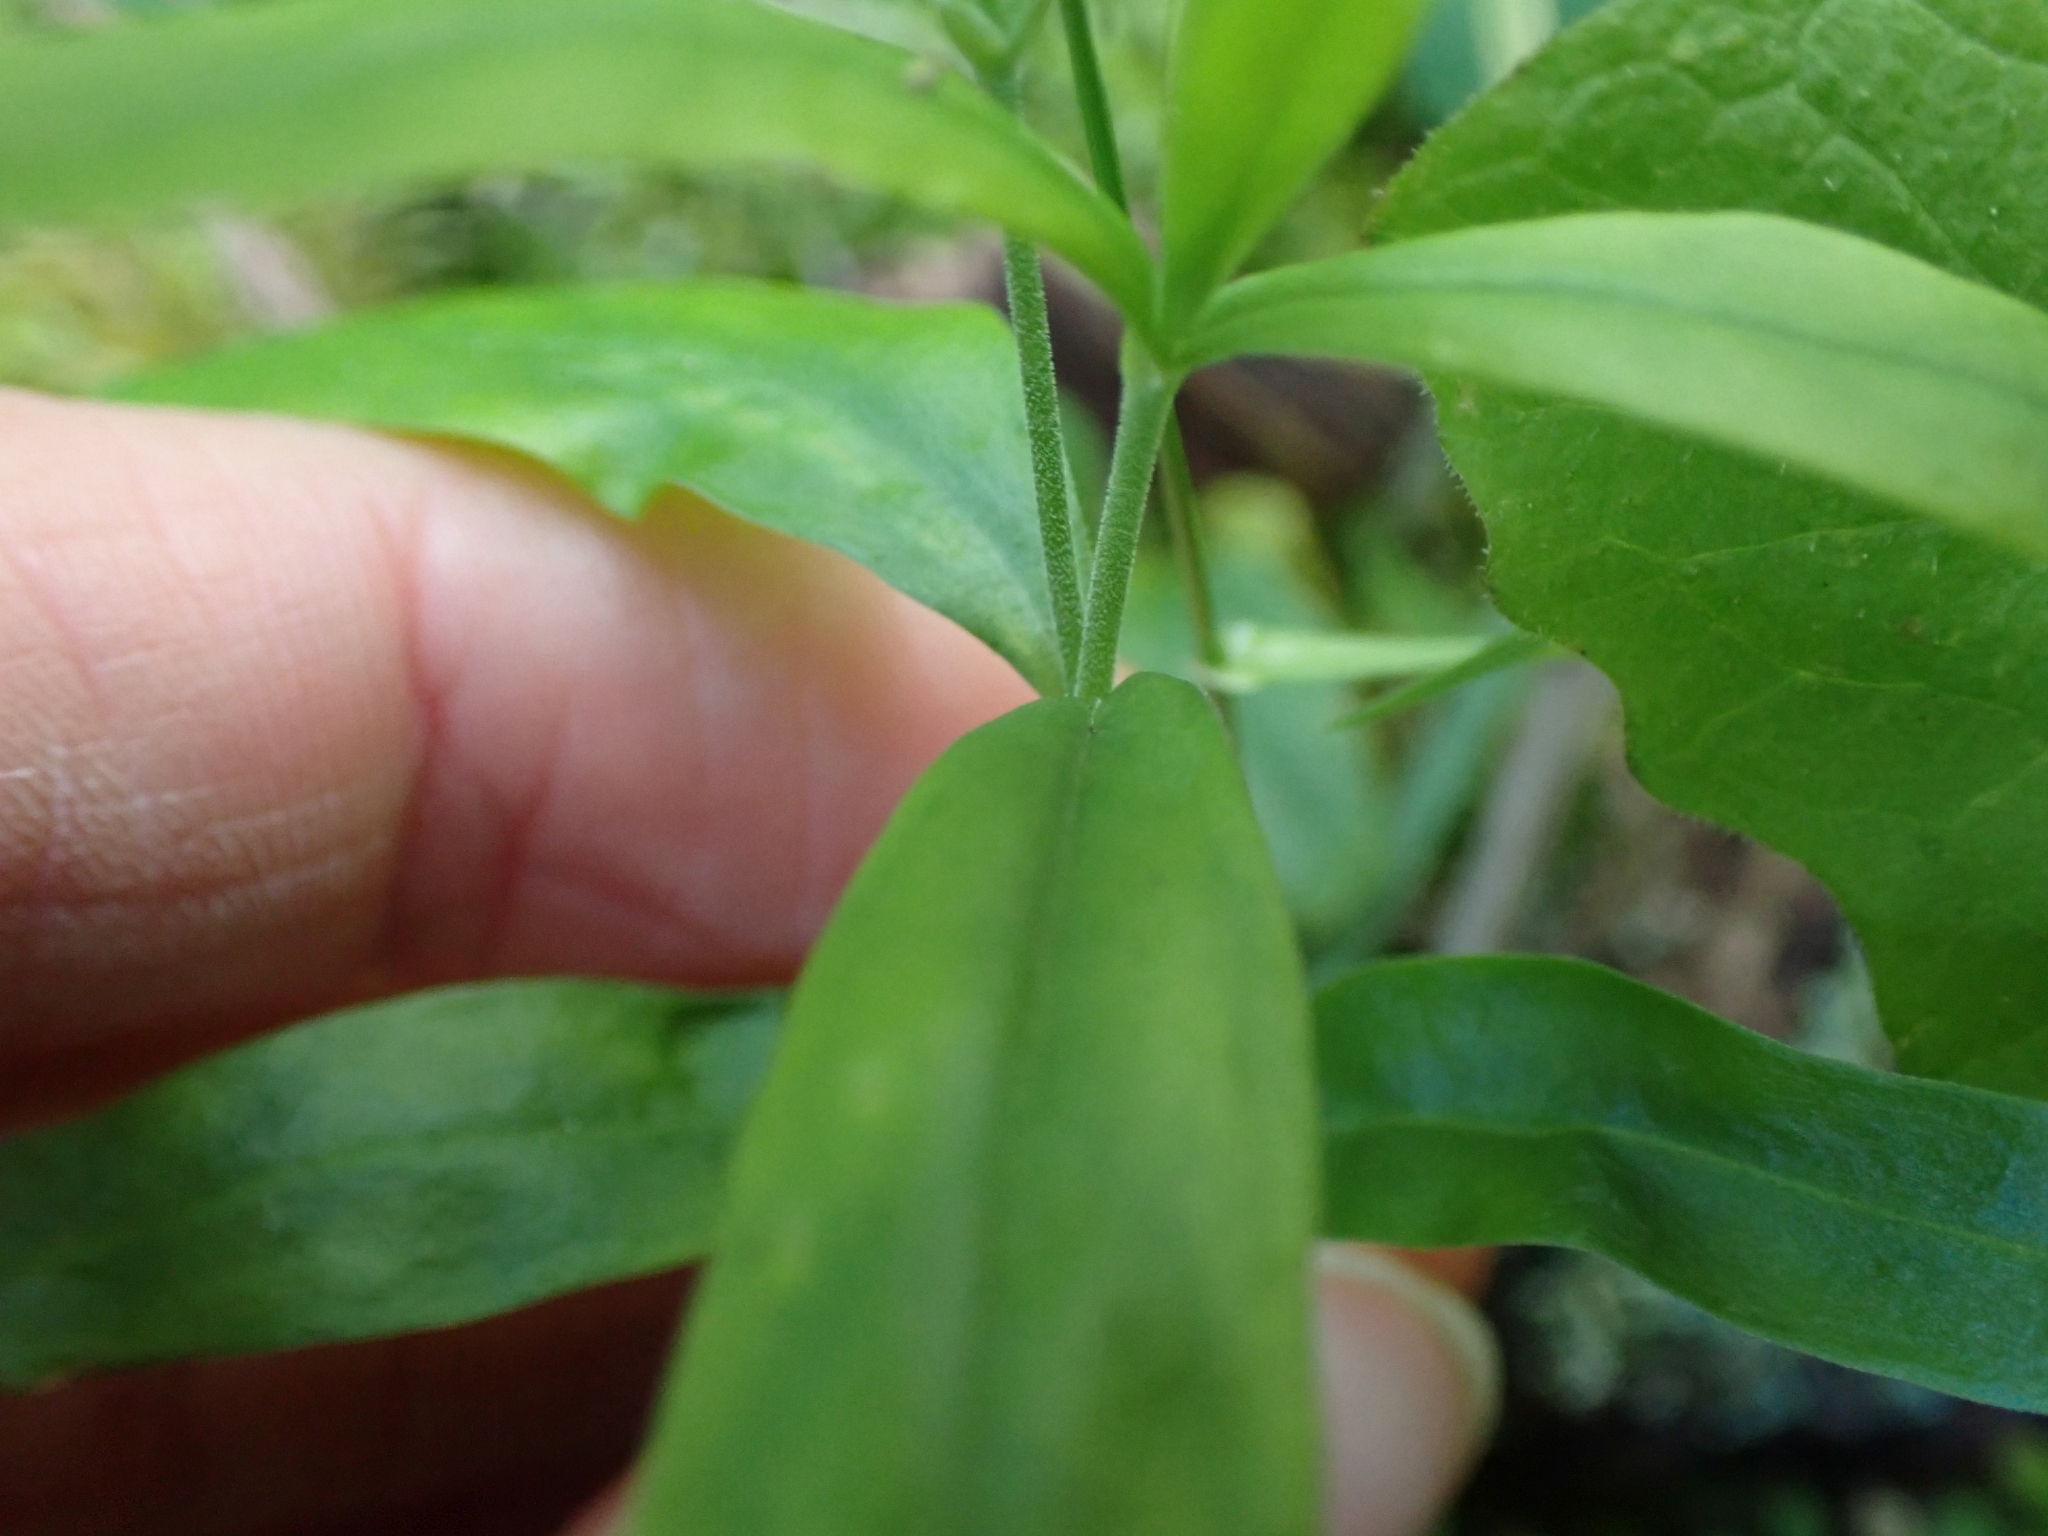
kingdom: Plantae
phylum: Tracheophyta
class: Magnoliopsida
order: Caryophyllales
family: Caryophyllaceae
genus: Moehringia
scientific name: Moehringia macrophylla
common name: Big-leaf sandwort
